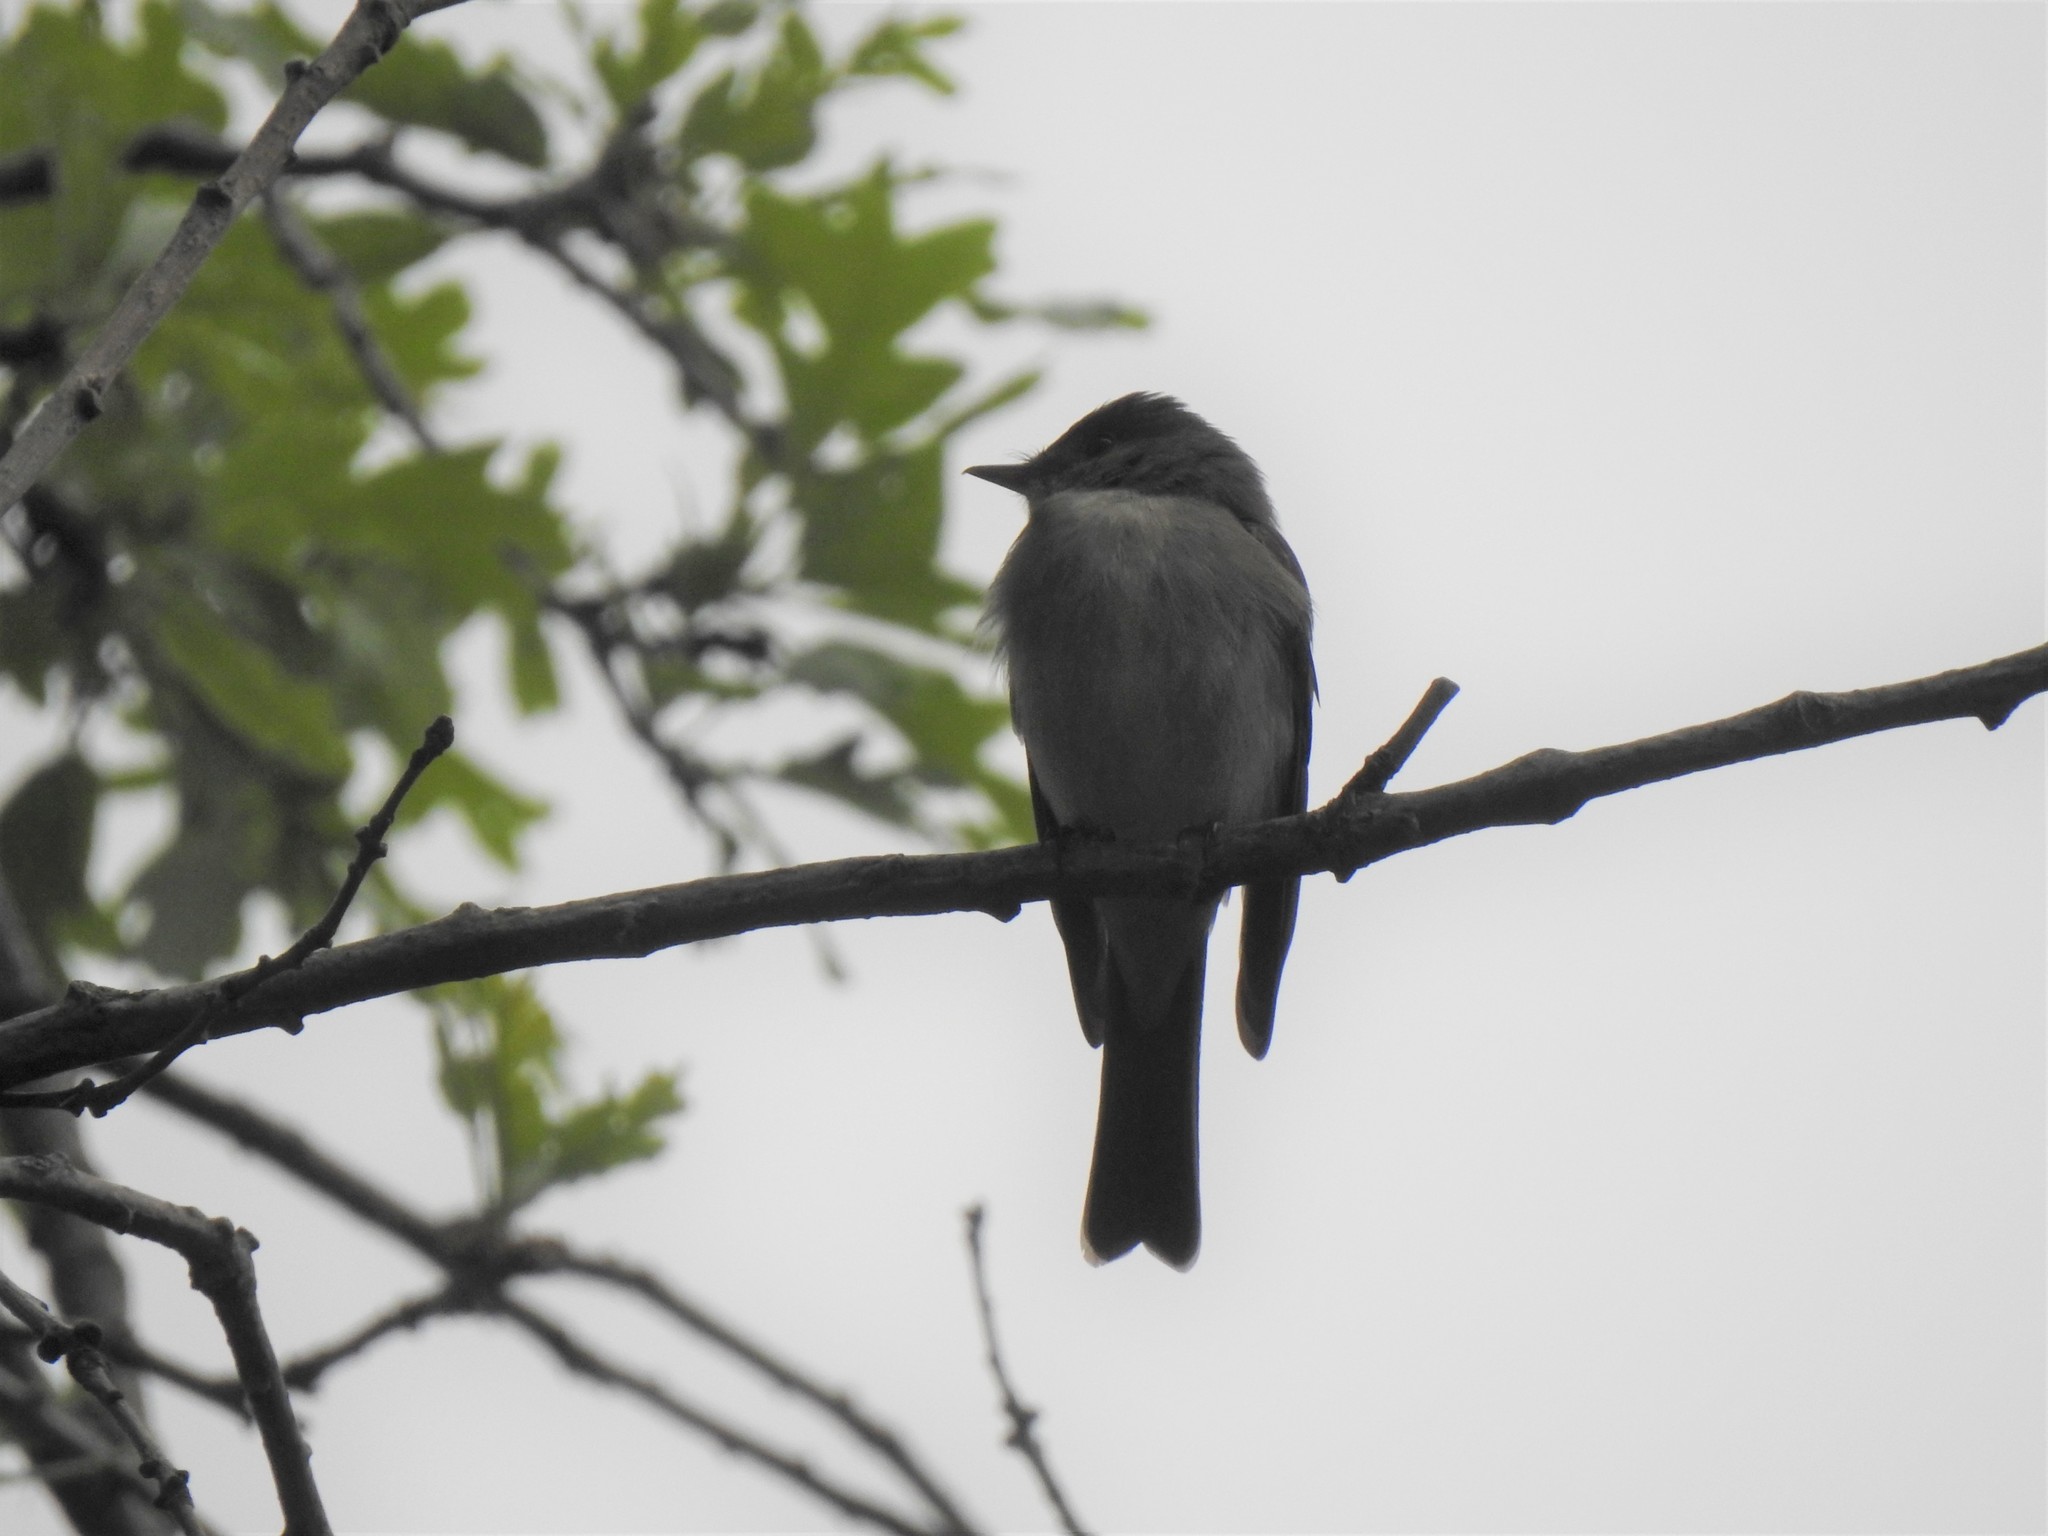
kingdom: Animalia
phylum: Chordata
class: Aves
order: Passeriformes
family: Tyrannidae
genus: Contopus
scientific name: Contopus virens
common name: Eastern wood-pewee
